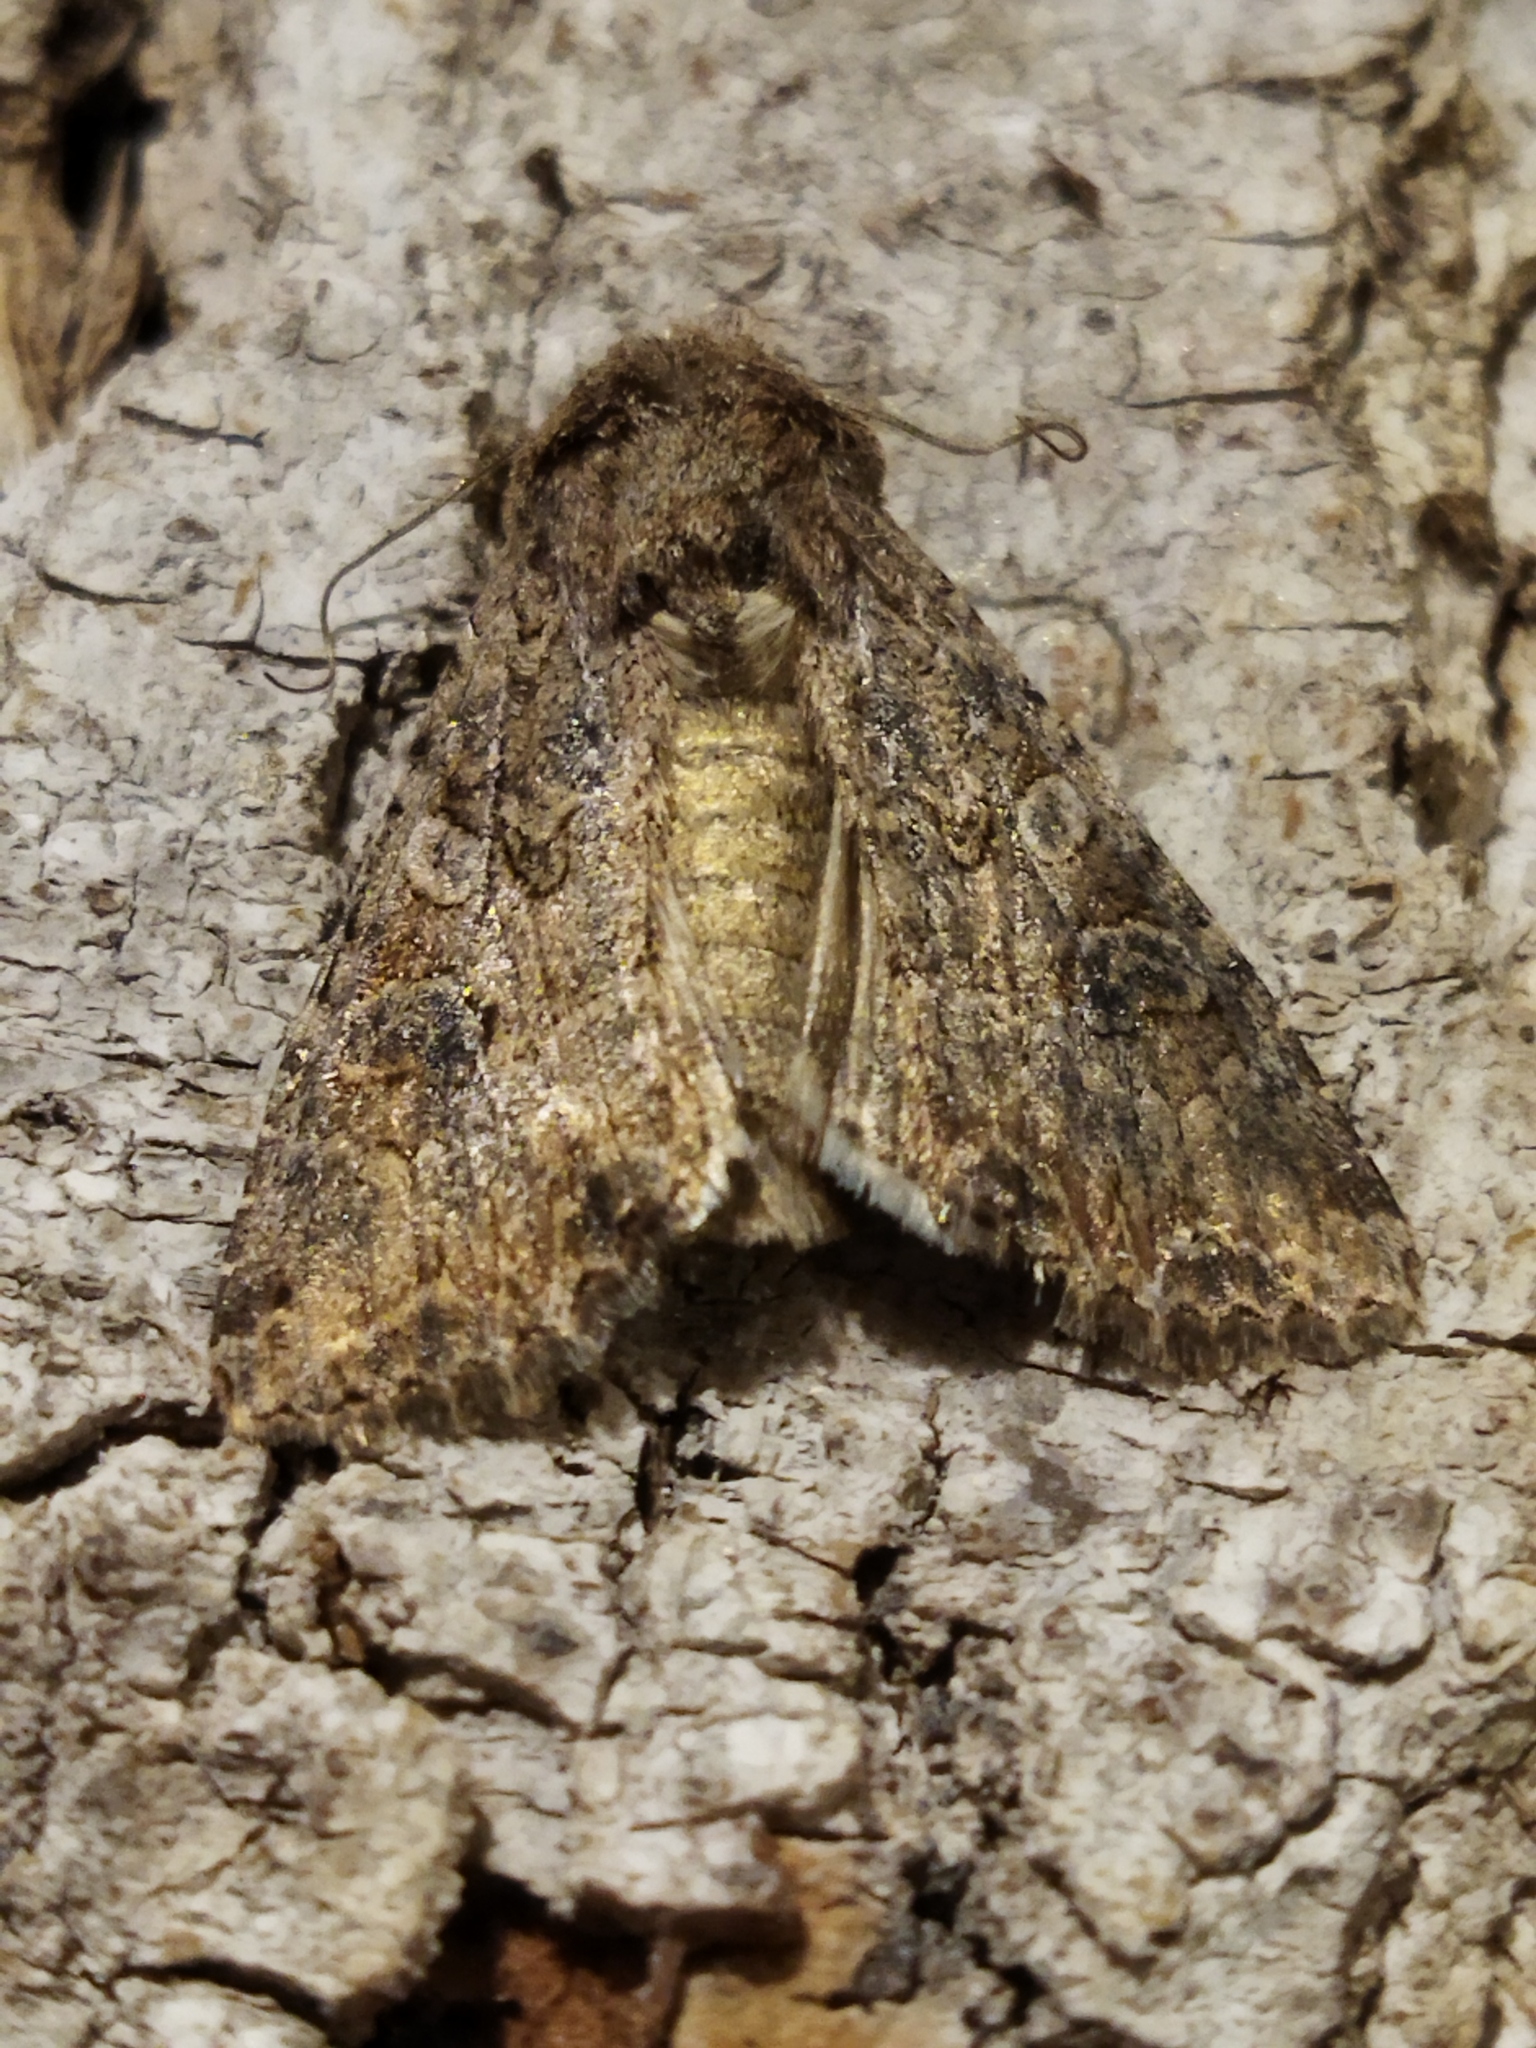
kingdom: Animalia
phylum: Arthropoda
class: Insecta
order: Lepidoptera
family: Noctuidae
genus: Anarta
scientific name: Anarta trifolii
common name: Clover cutworm moth
